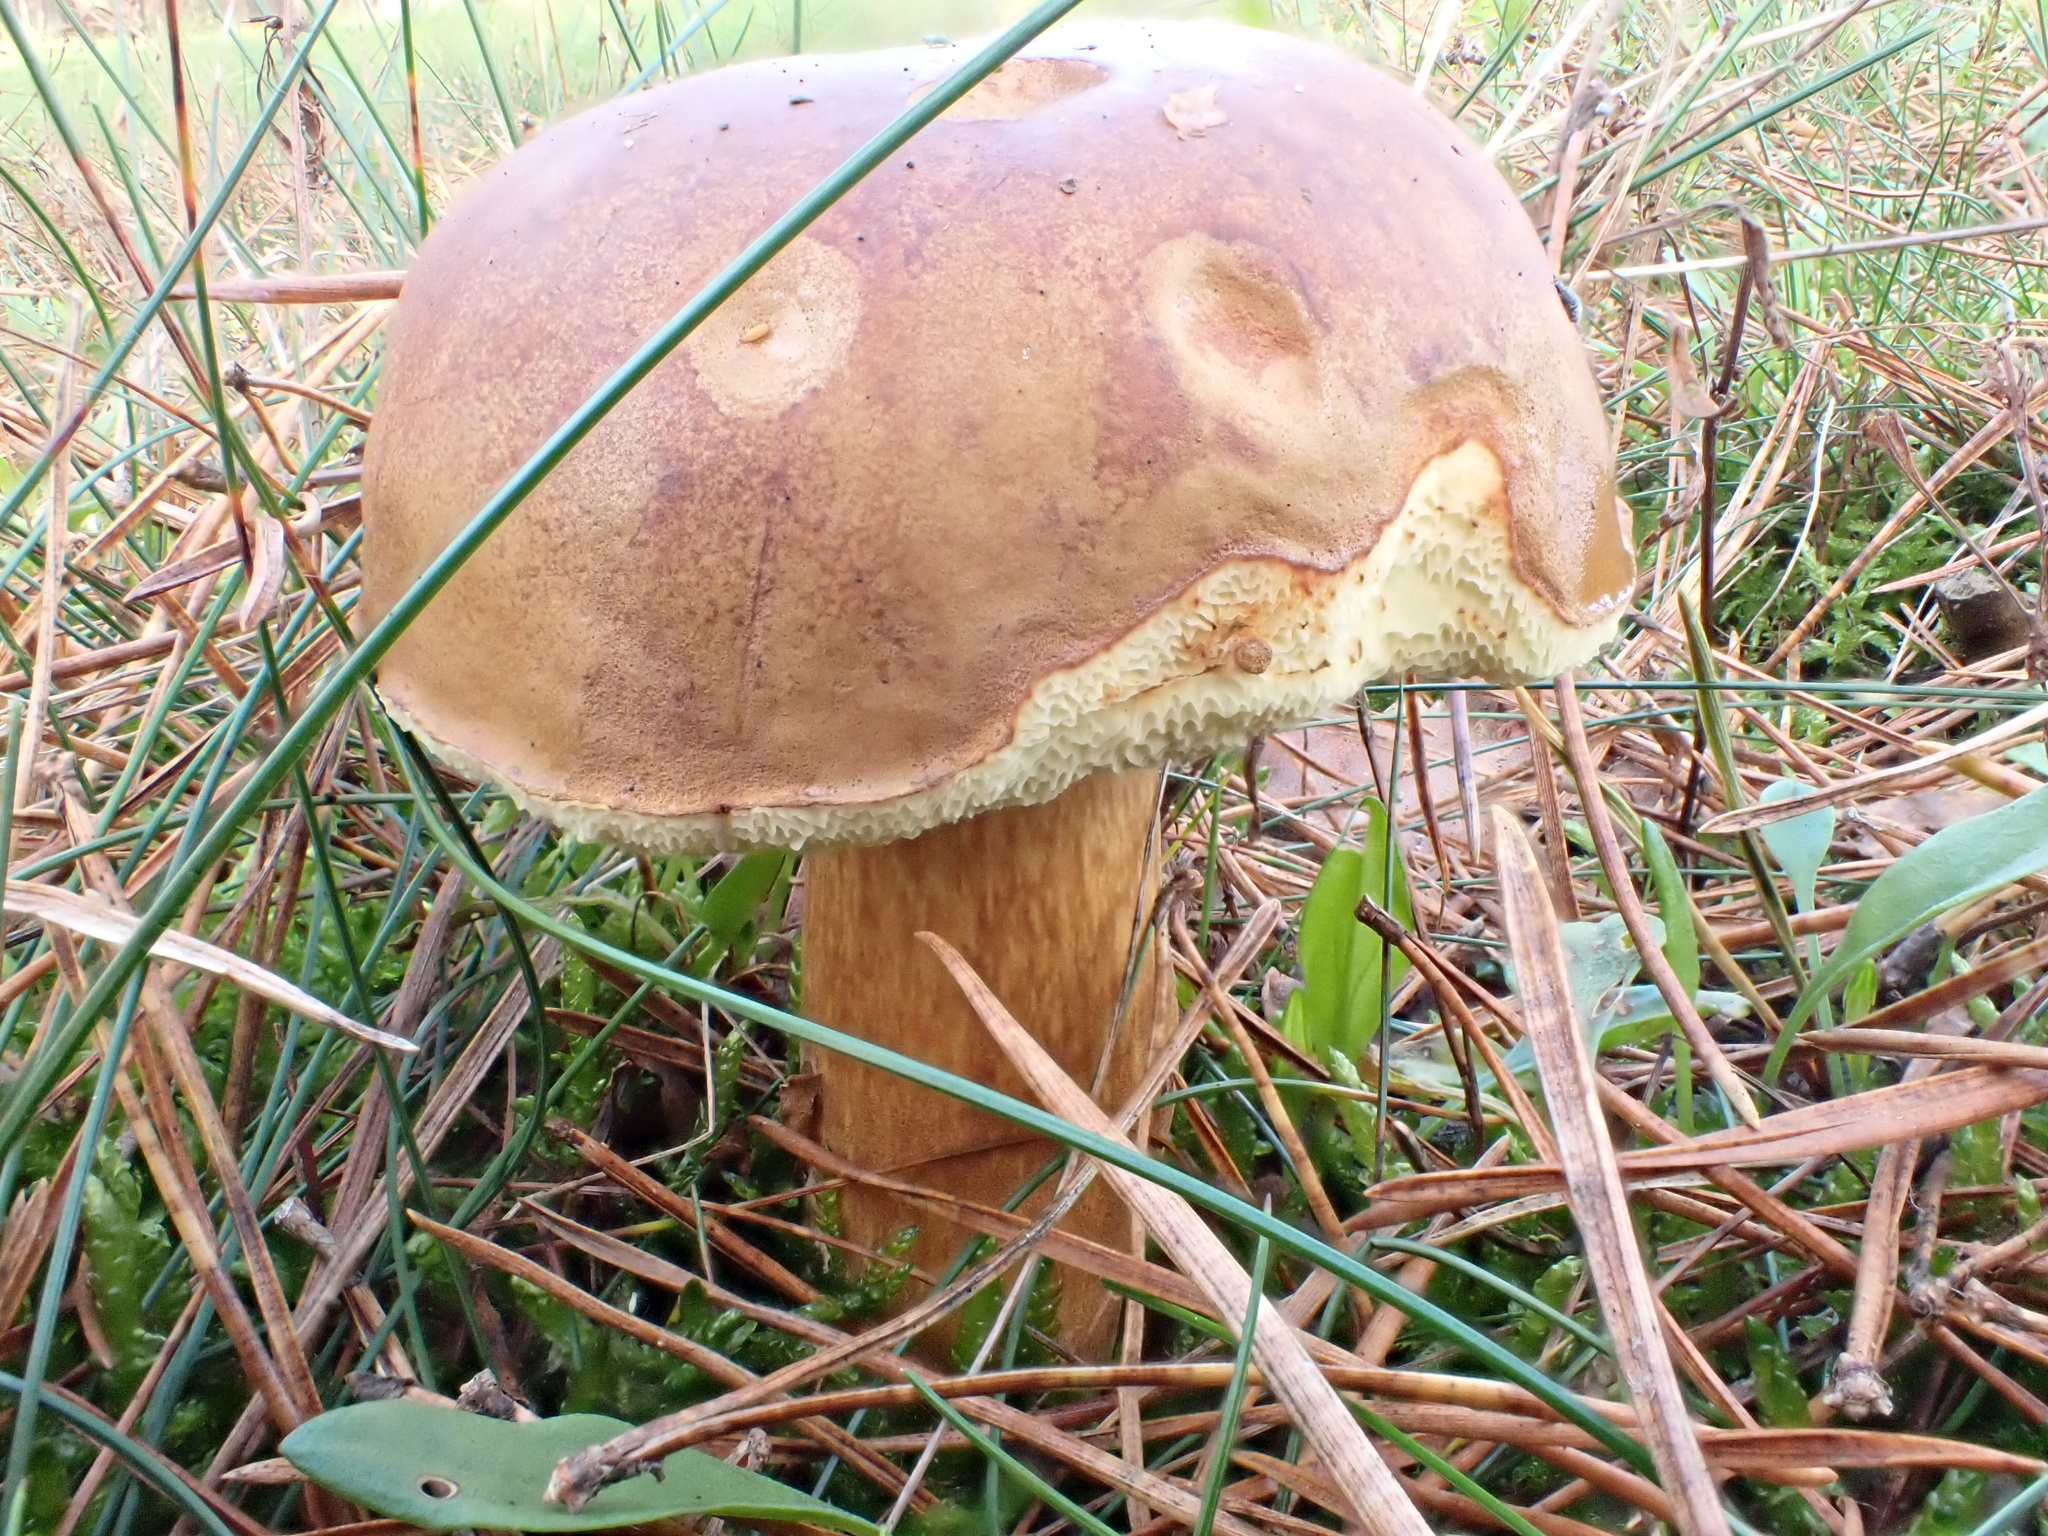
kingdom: Fungi
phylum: Basidiomycota
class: Agaricomycetes
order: Boletales
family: Boletaceae
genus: Imleria
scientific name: Imleria badia
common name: Bay bolete
